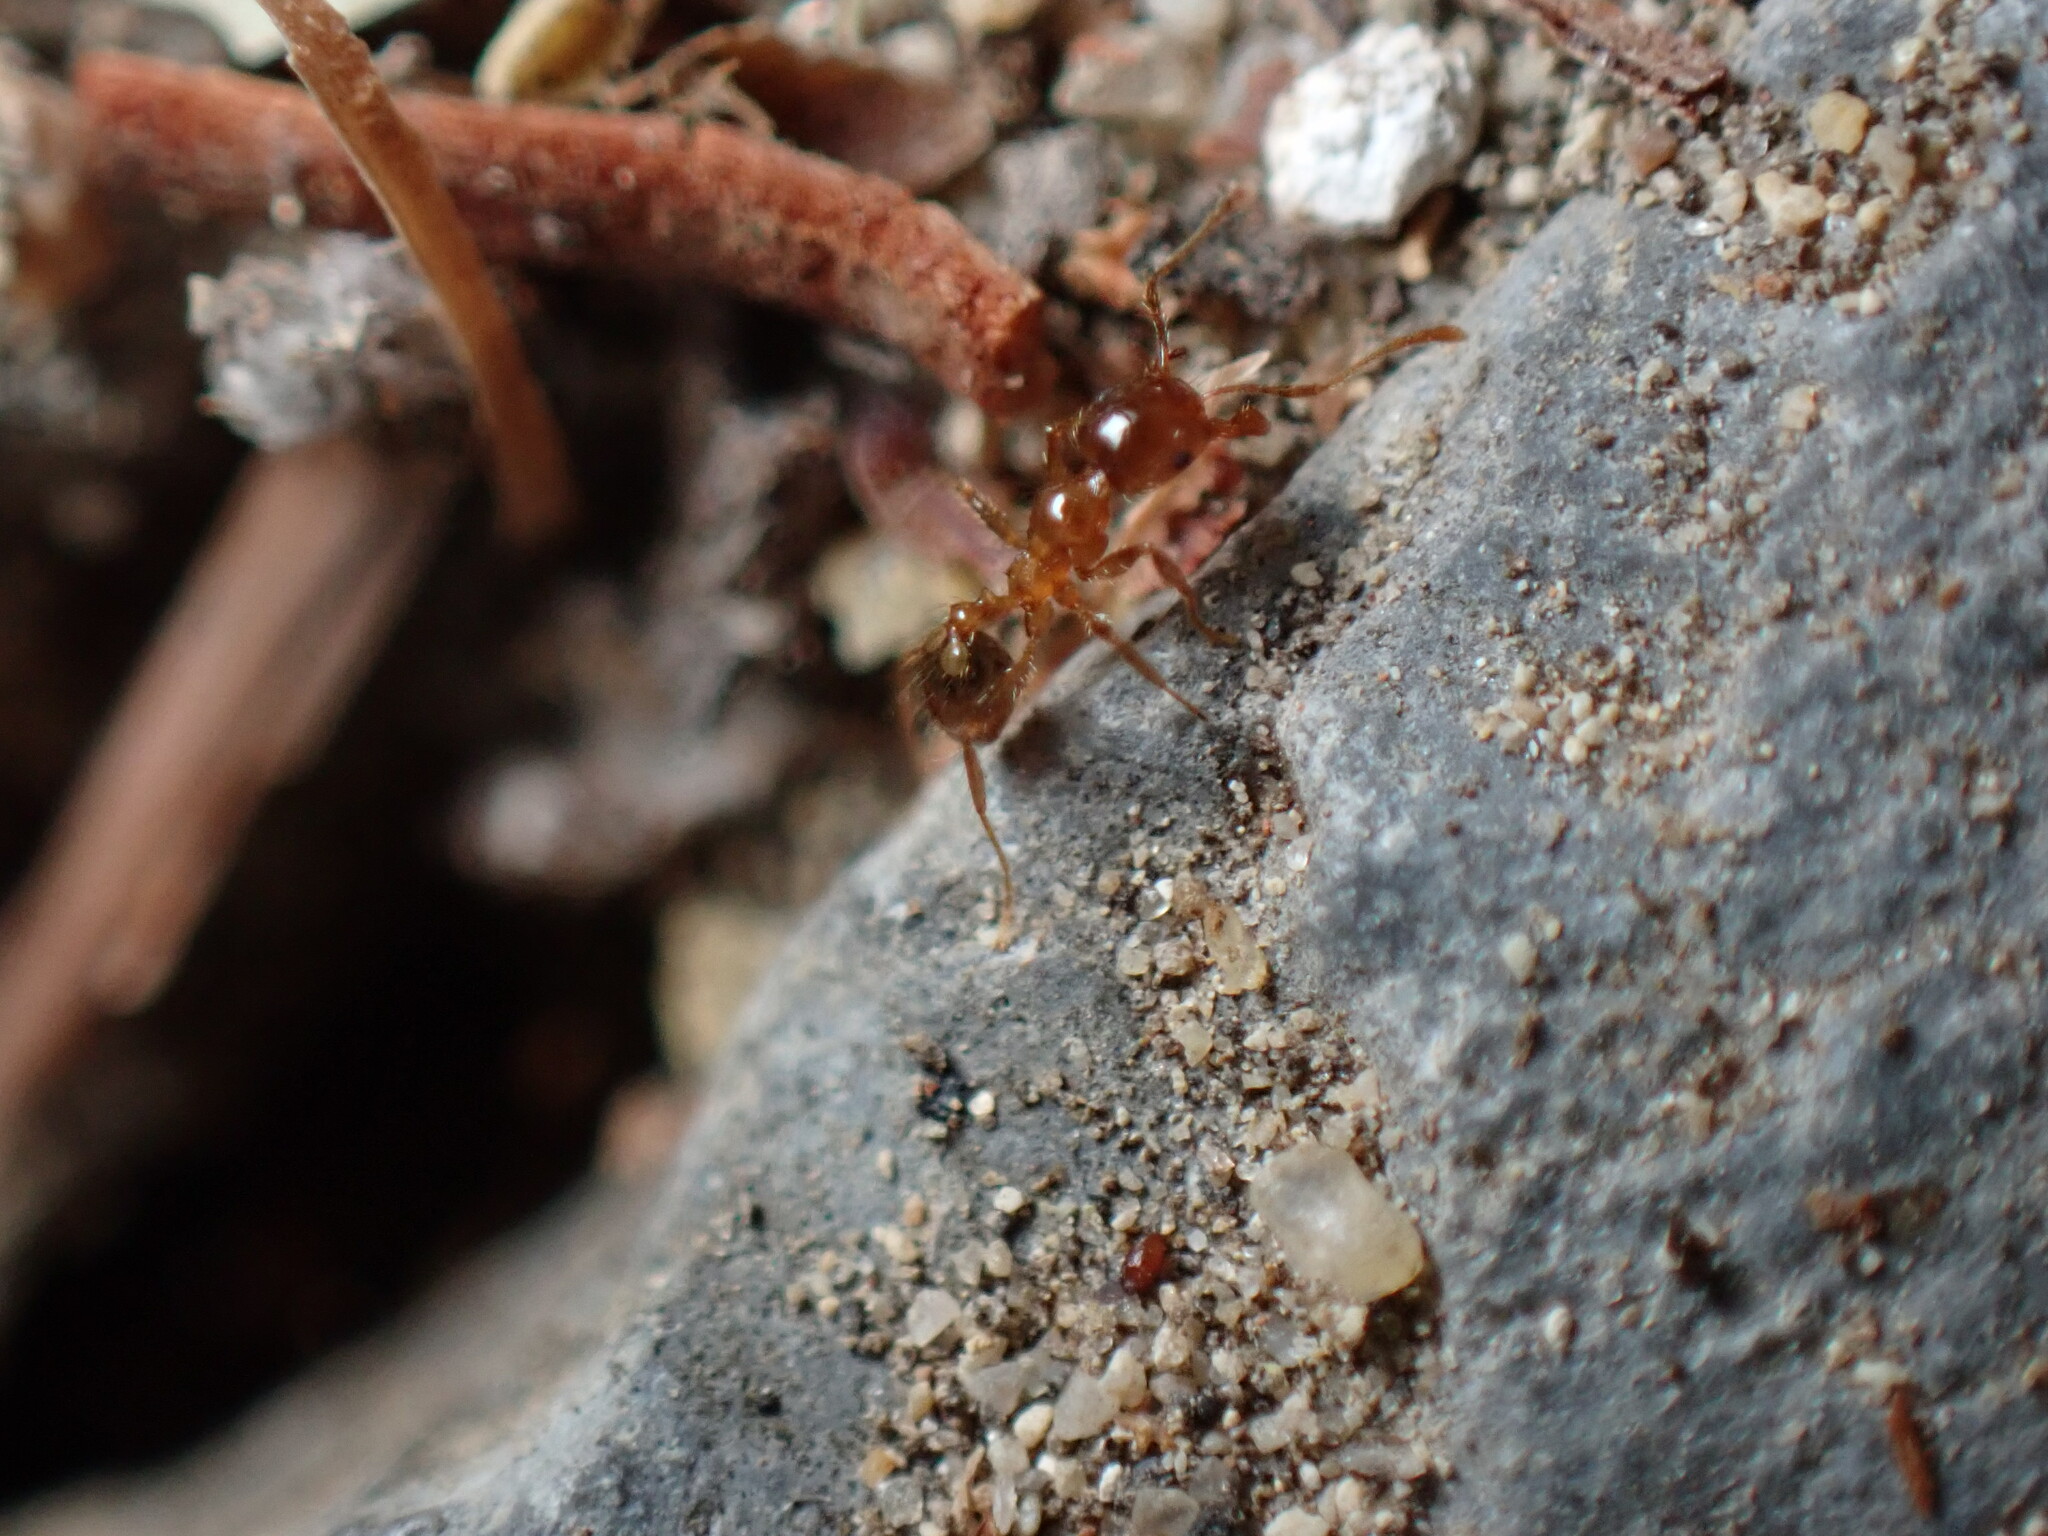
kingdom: Animalia
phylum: Arthropoda
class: Insecta
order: Hymenoptera
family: Formicidae
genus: Pheidole
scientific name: Pheidole pallidula
